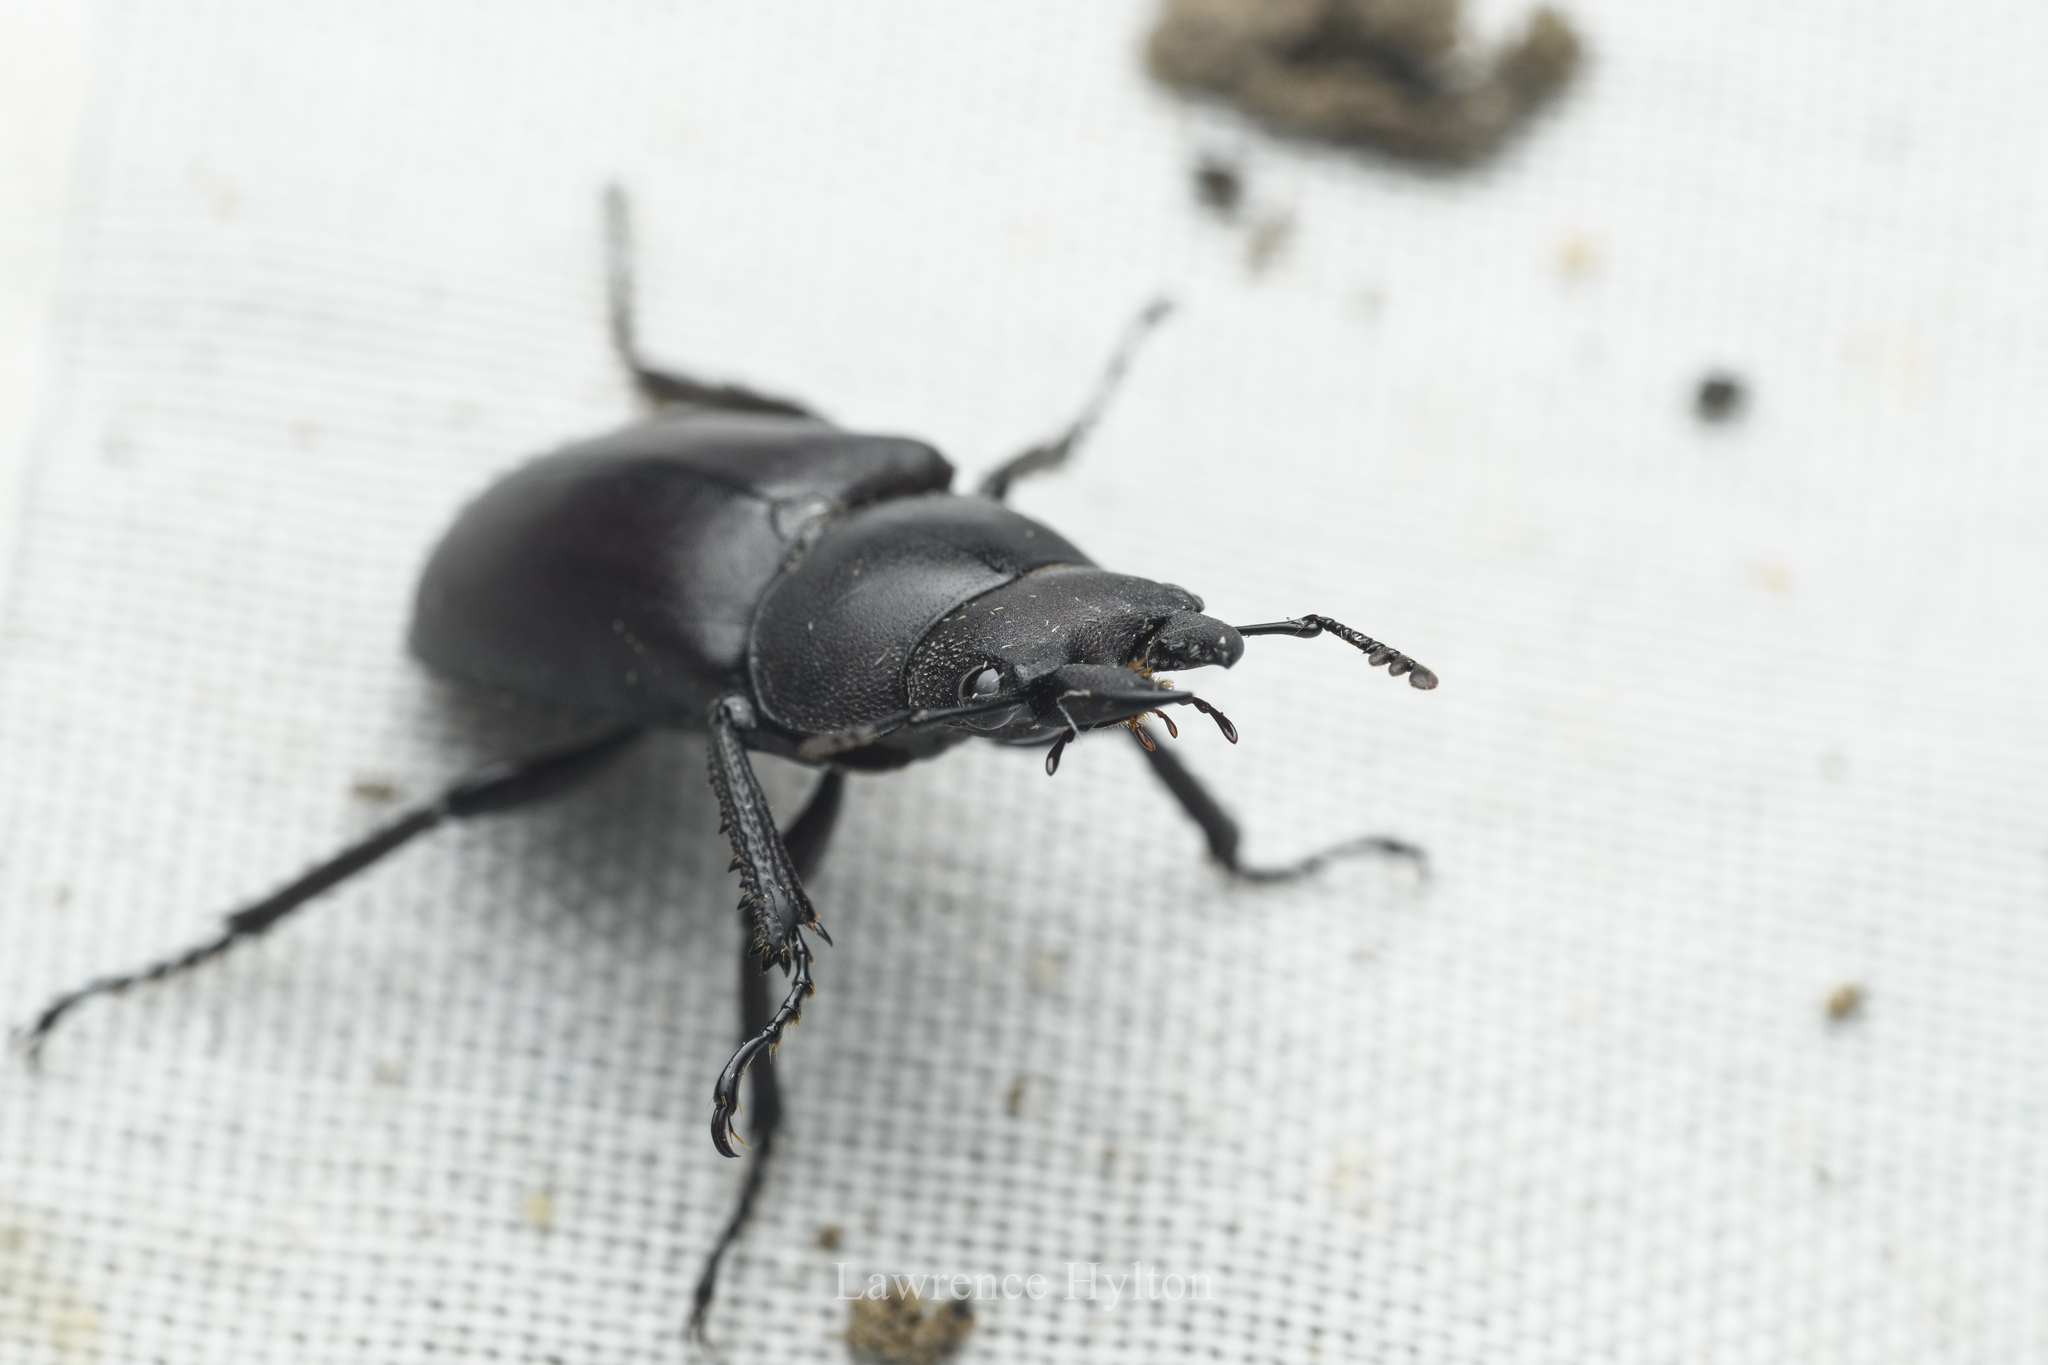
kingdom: Animalia
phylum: Arthropoda
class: Insecta
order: Coleoptera
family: Lucanidae
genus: Prosopocoilus
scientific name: Prosopocoilus oweni
